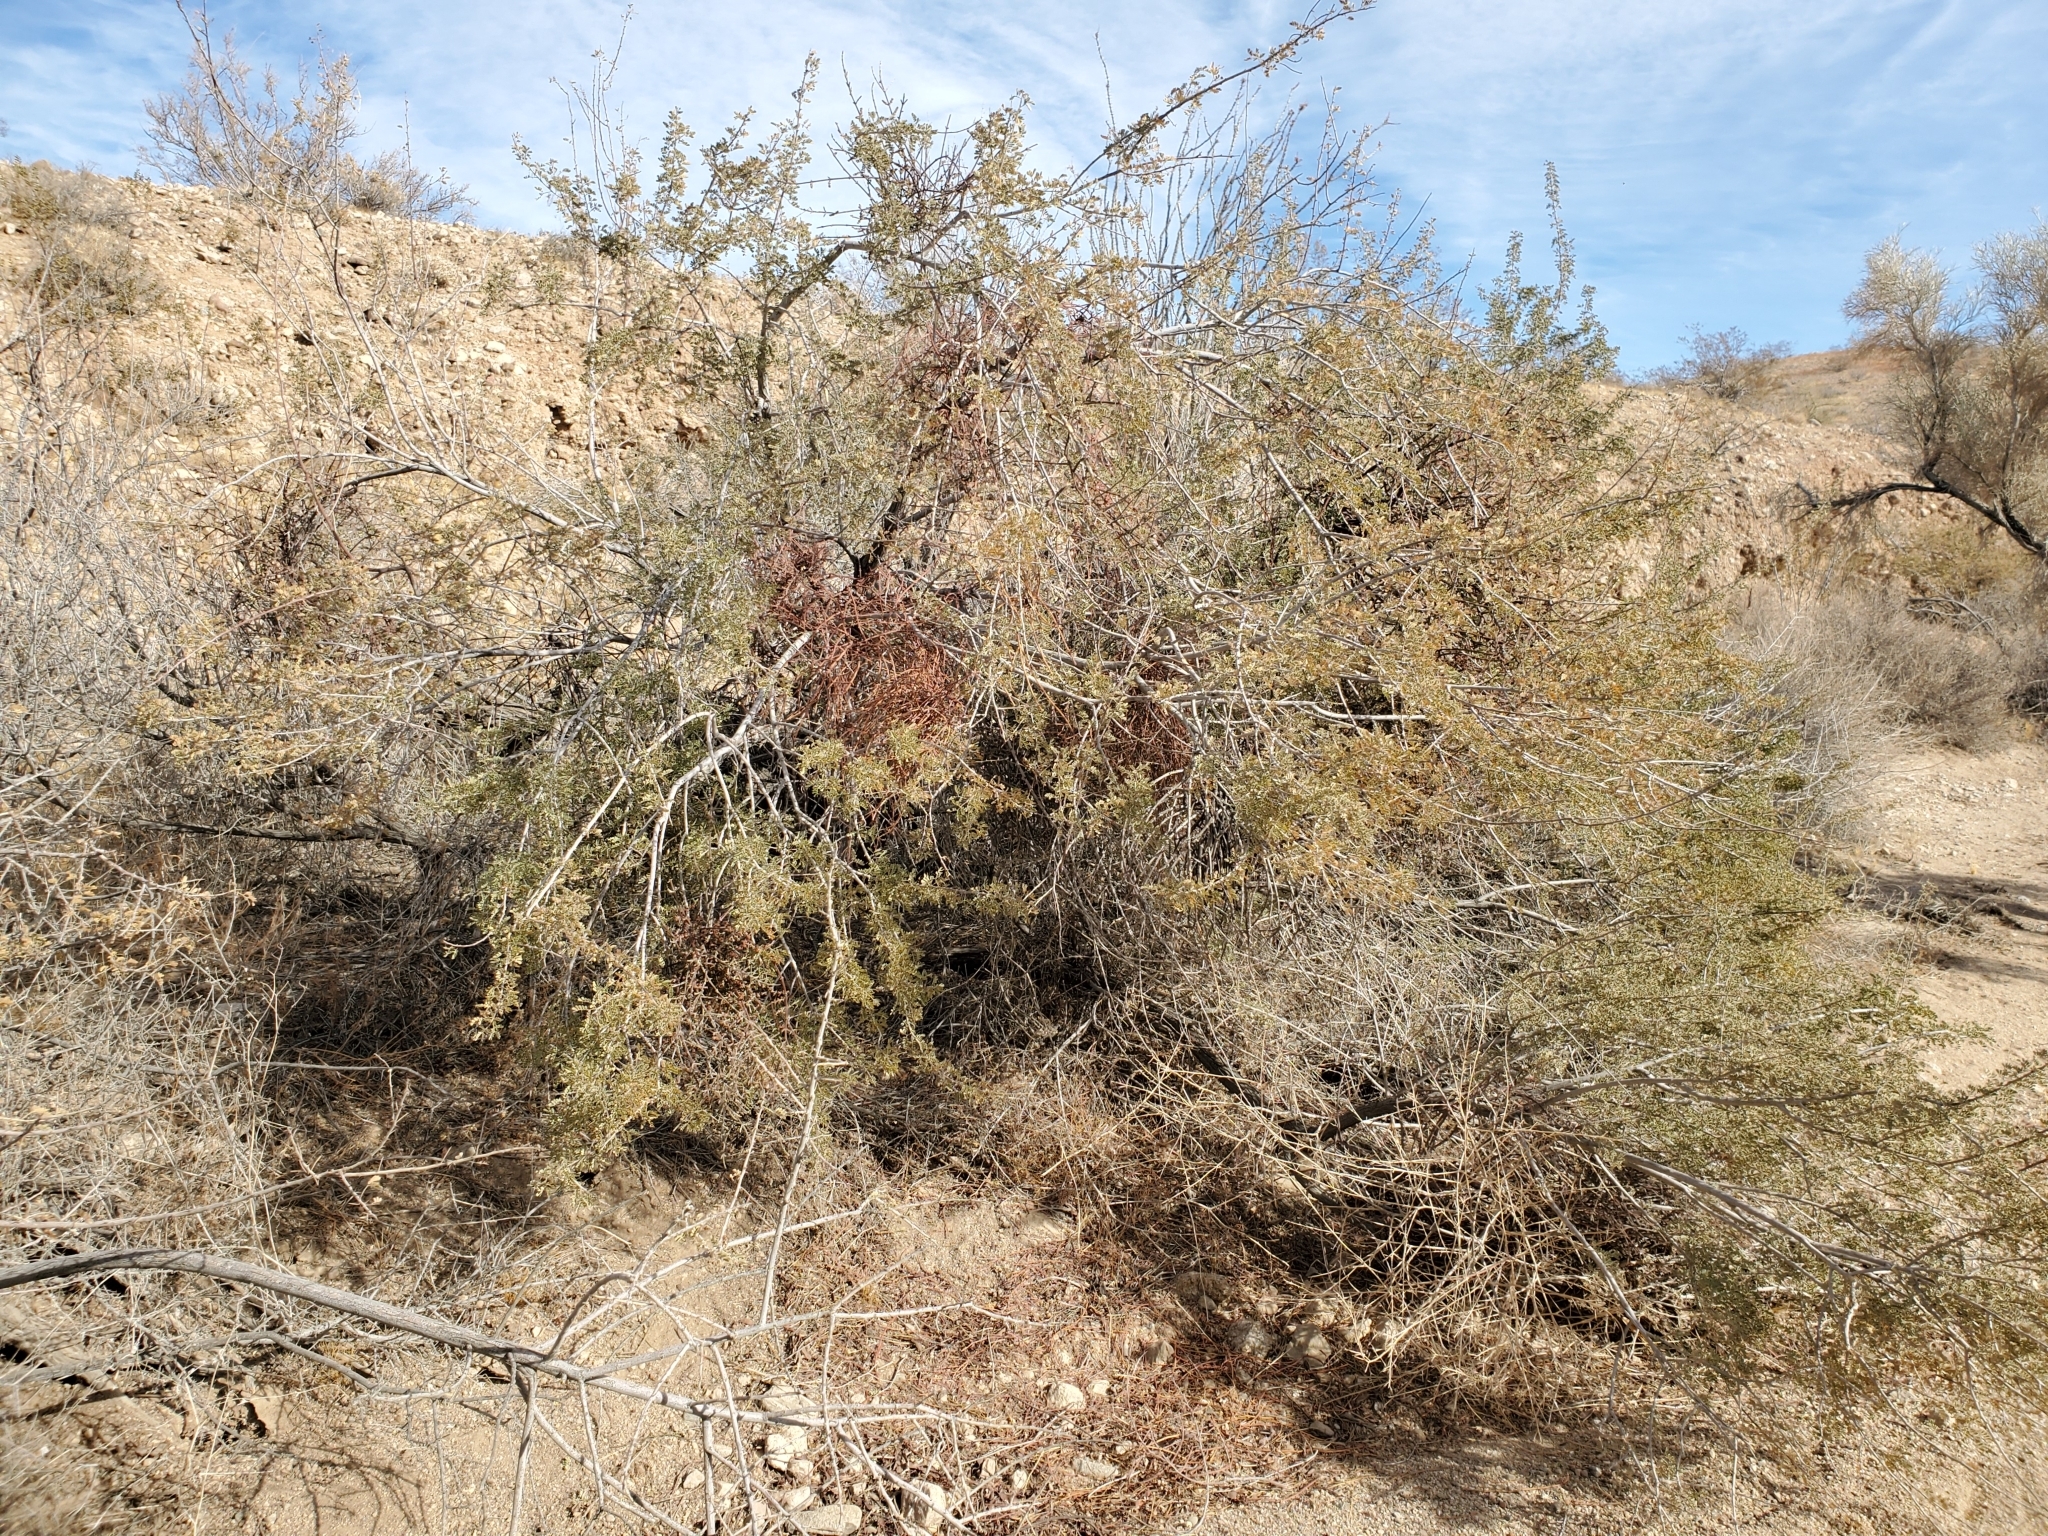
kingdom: Plantae
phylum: Tracheophyta
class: Magnoliopsida
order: Santalales
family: Viscaceae
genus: Phoradendron
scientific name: Phoradendron californicum
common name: Acacia mistletoe
